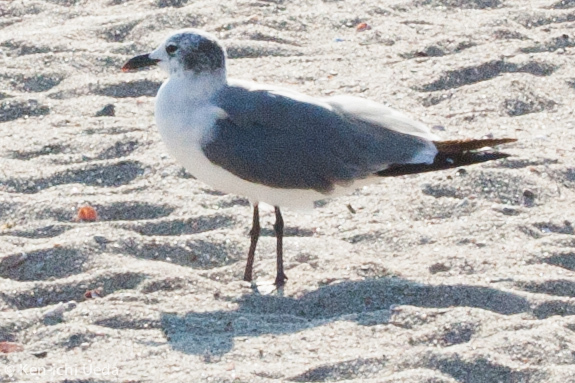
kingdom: Animalia
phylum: Chordata
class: Aves
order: Charadriiformes
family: Laridae
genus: Leucophaeus
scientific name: Leucophaeus atricilla
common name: Laughing gull
